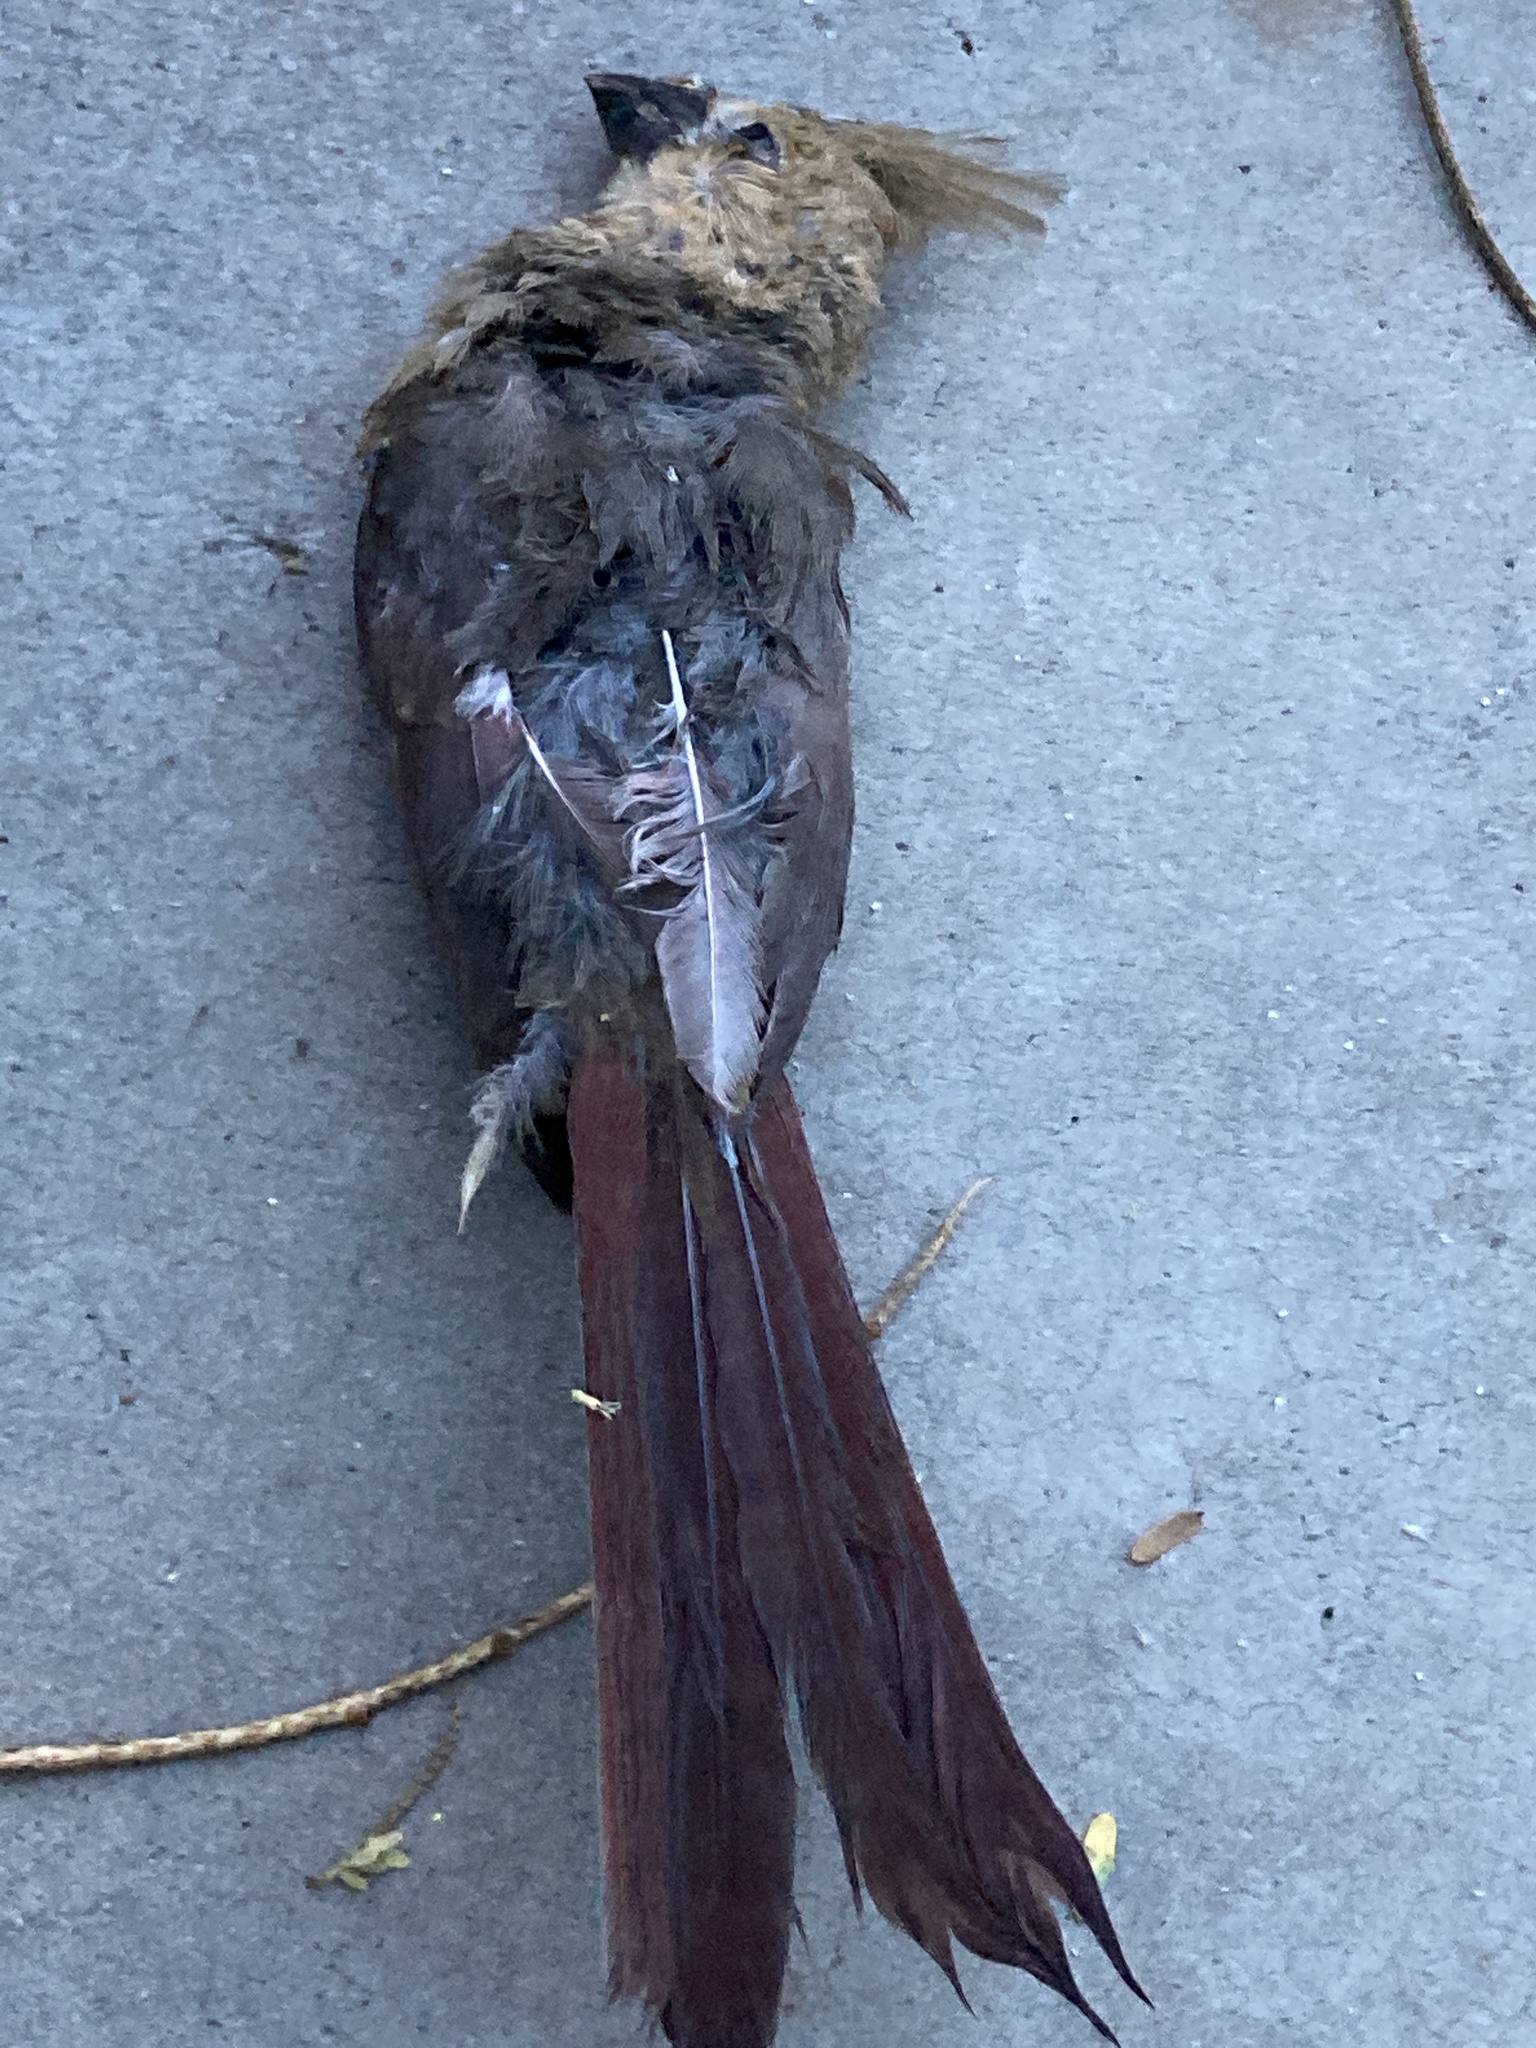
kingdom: Animalia
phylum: Chordata
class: Aves
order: Passeriformes
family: Cardinalidae
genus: Cardinalis
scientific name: Cardinalis cardinalis
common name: Northern cardinal
